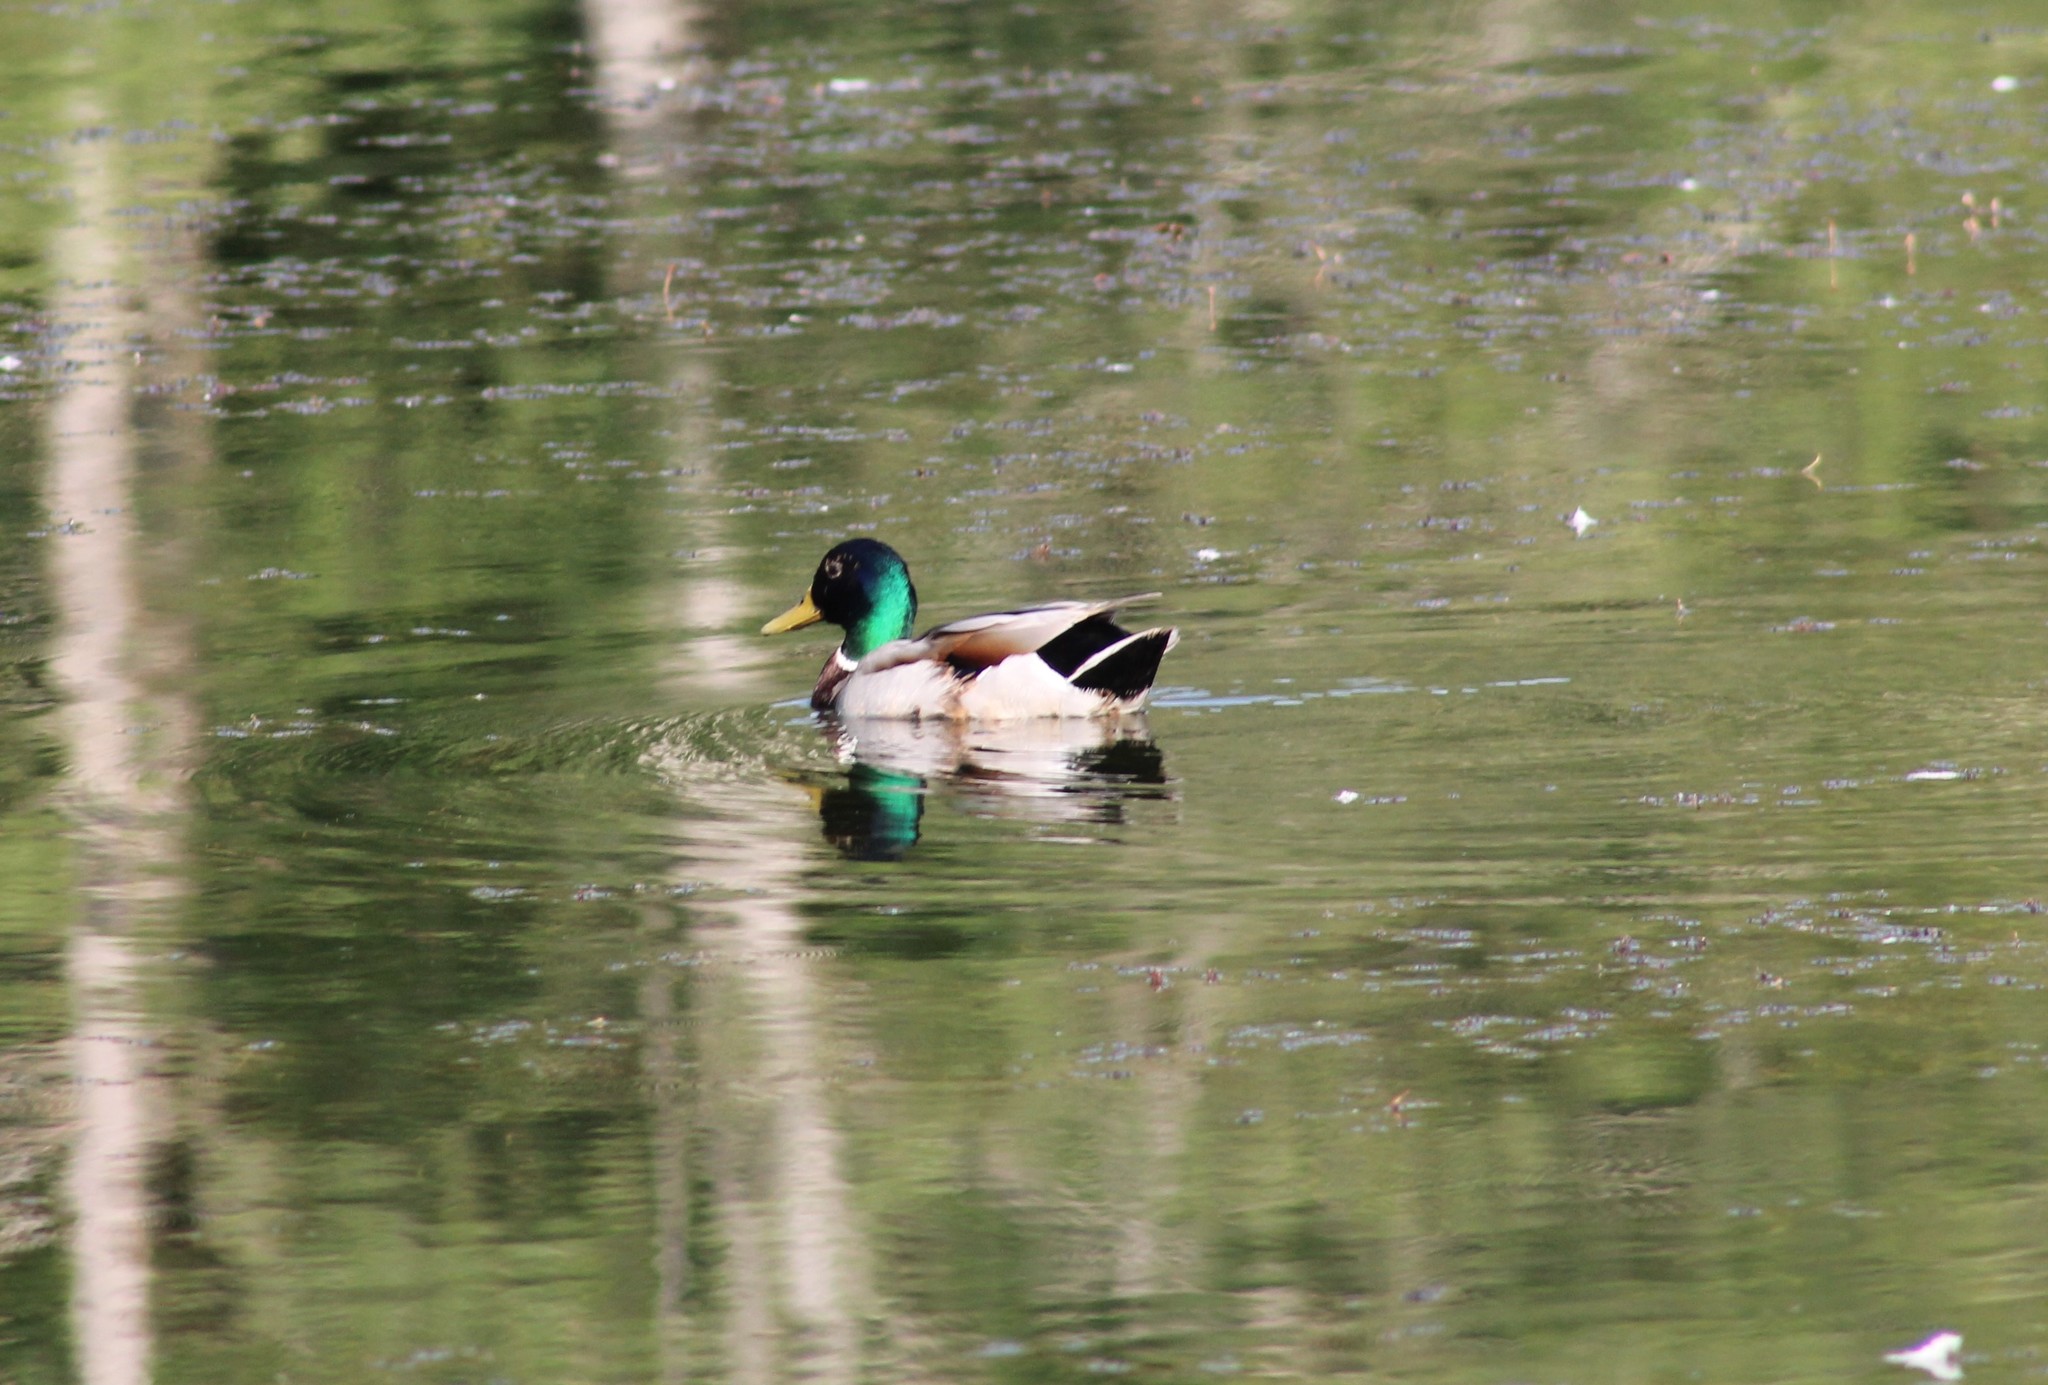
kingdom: Animalia
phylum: Chordata
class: Aves
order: Anseriformes
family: Anatidae
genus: Anas
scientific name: Anas platyrhynchos
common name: Mallard
